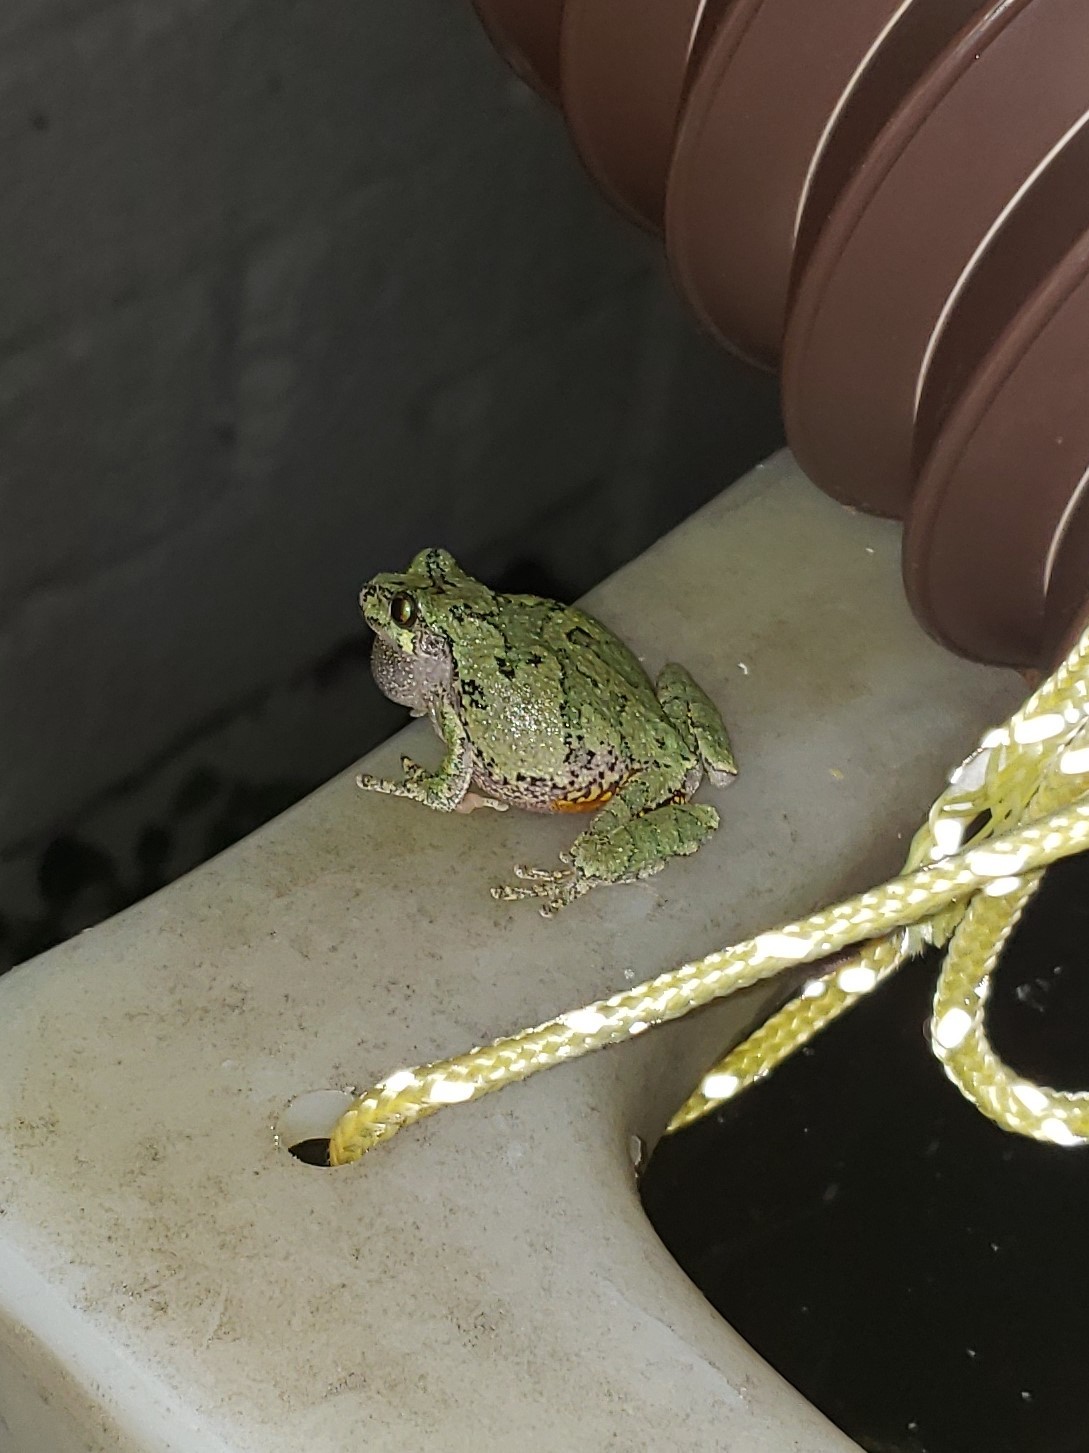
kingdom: Animalia
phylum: Chordata
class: Amphibia
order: Anura
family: Hylidae
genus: Hyla
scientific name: Hyla
